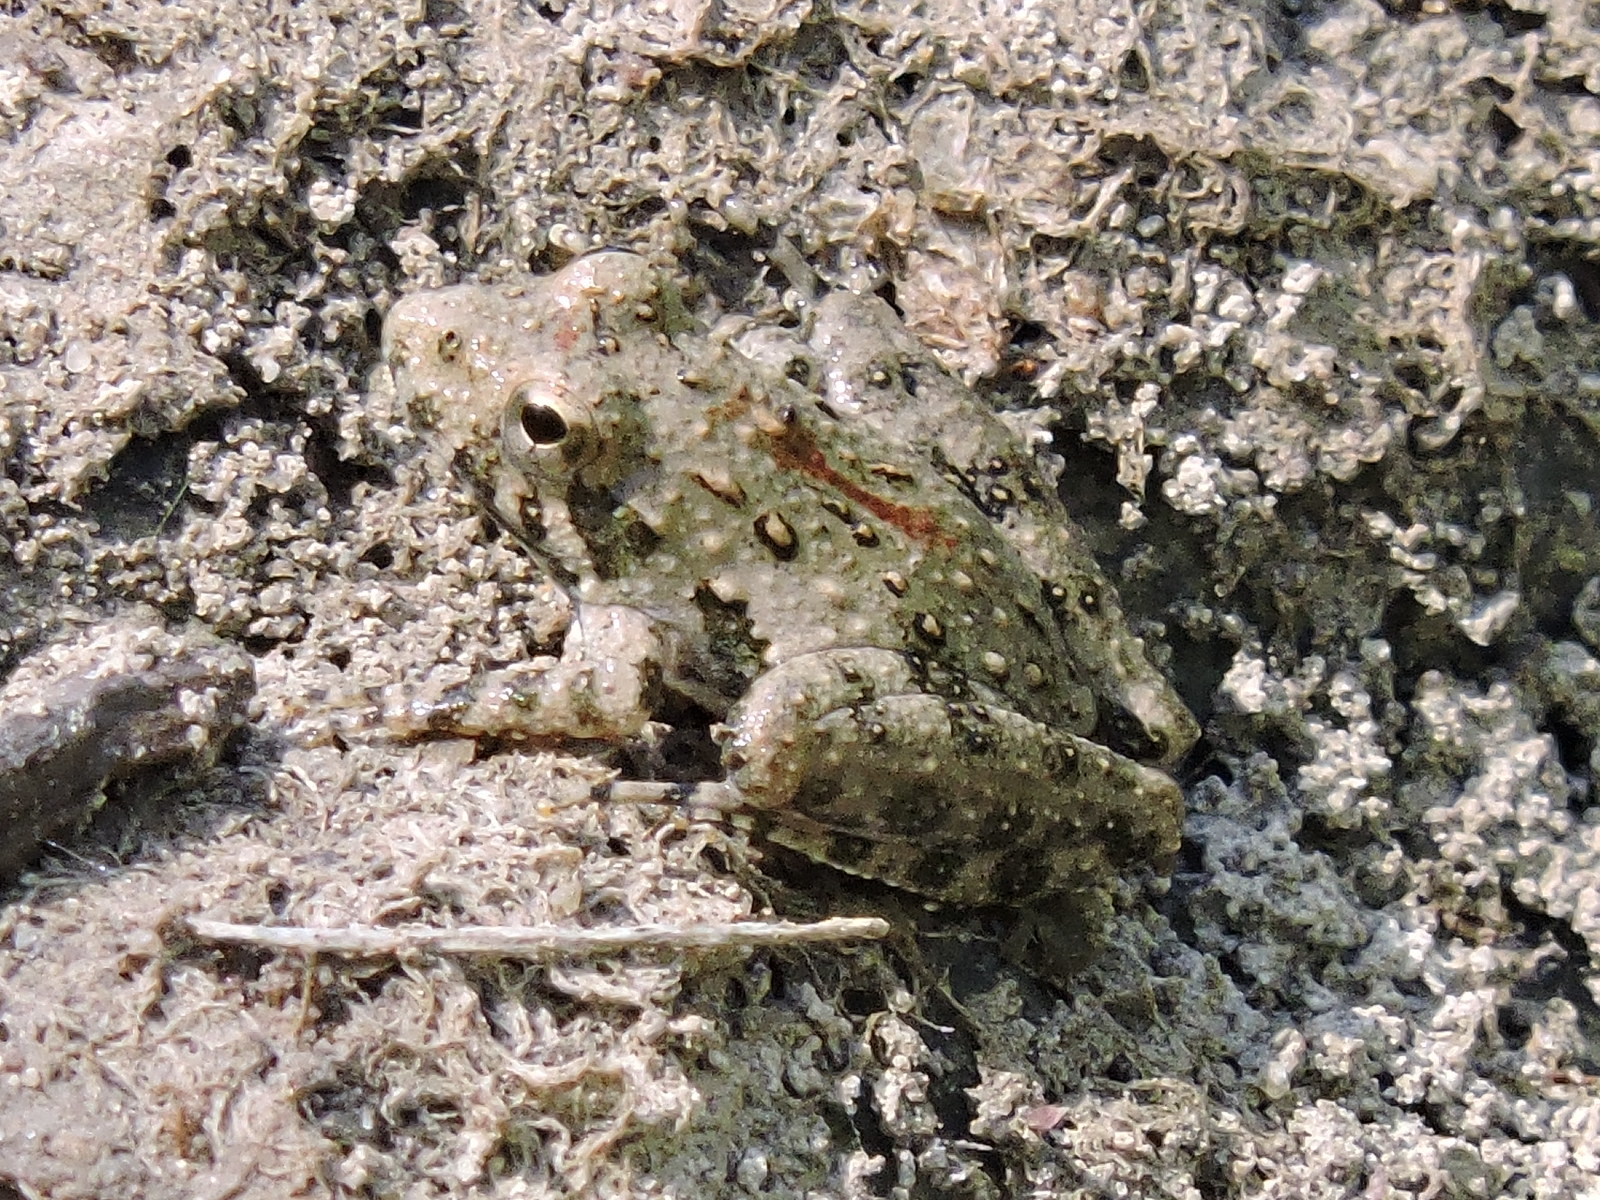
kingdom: Animalia
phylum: Chordata
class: Amphibia
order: Anura
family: Hylidae
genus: Acris
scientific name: Acris blanchardi
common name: Blanchard's cricket frog
